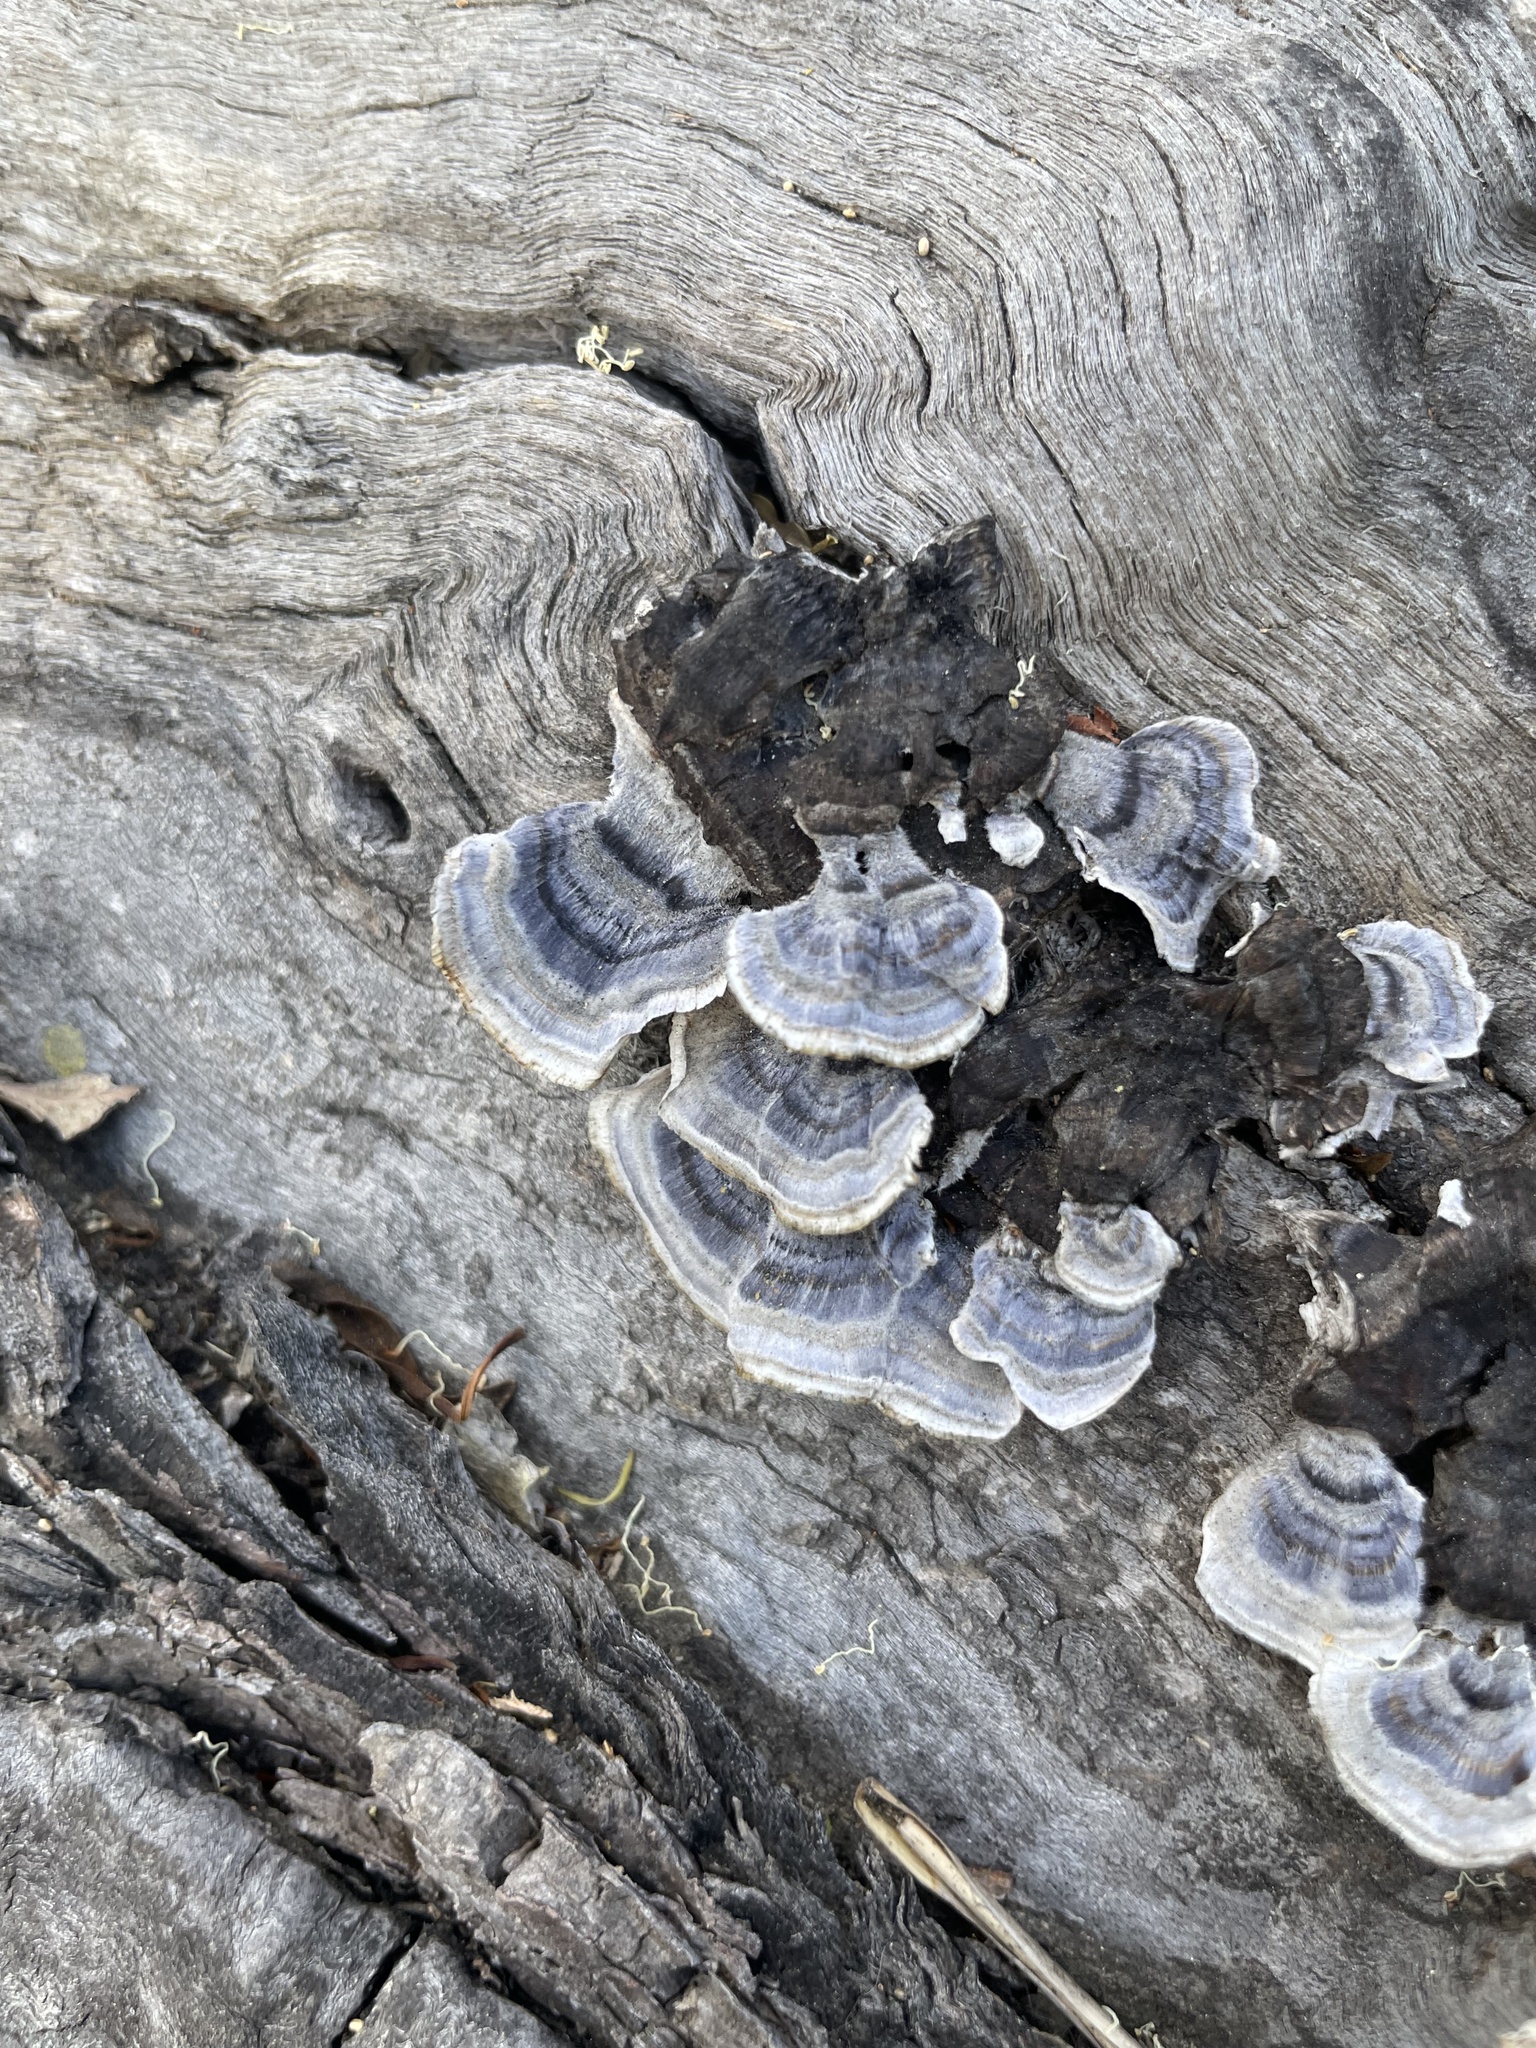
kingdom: Fungi
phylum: Basidiomycota
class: Agaricomycetes
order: Polyporales
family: Polyporaceae
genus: Trametes
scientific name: Trametes versicolor
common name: Turkeytail
